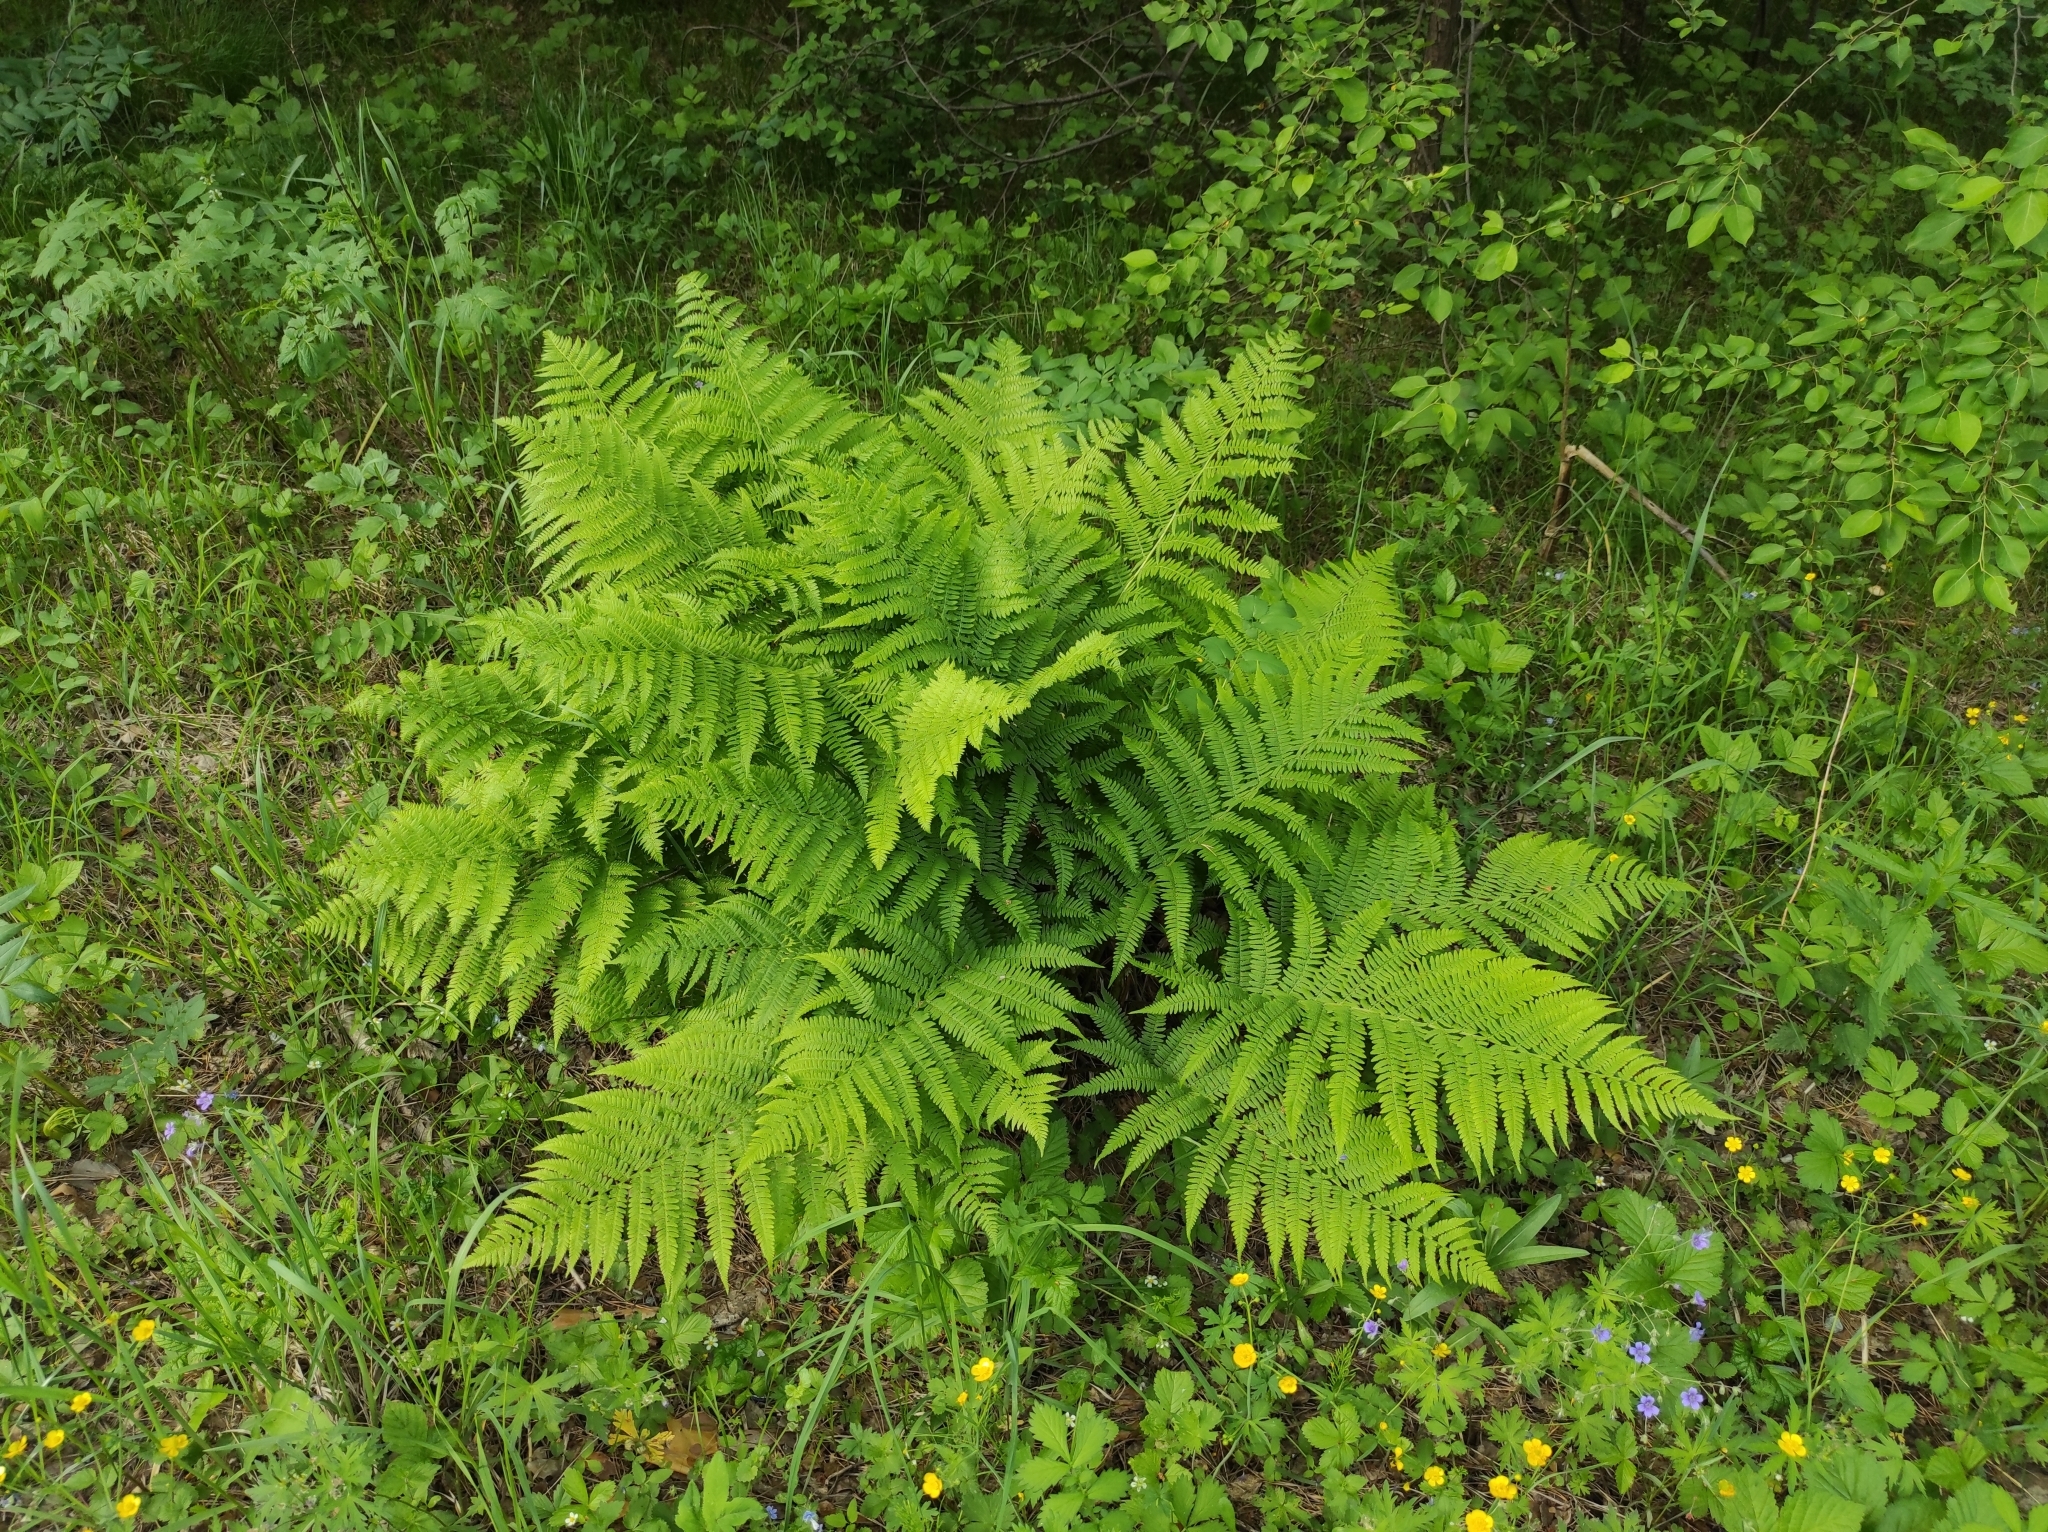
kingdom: Plantae
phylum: Tracheophyta
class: Polypodiopsida
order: Polypodiales
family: Athyriaceae
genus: Athyrium
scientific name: Athyrium filix-femina
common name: Lady fern
